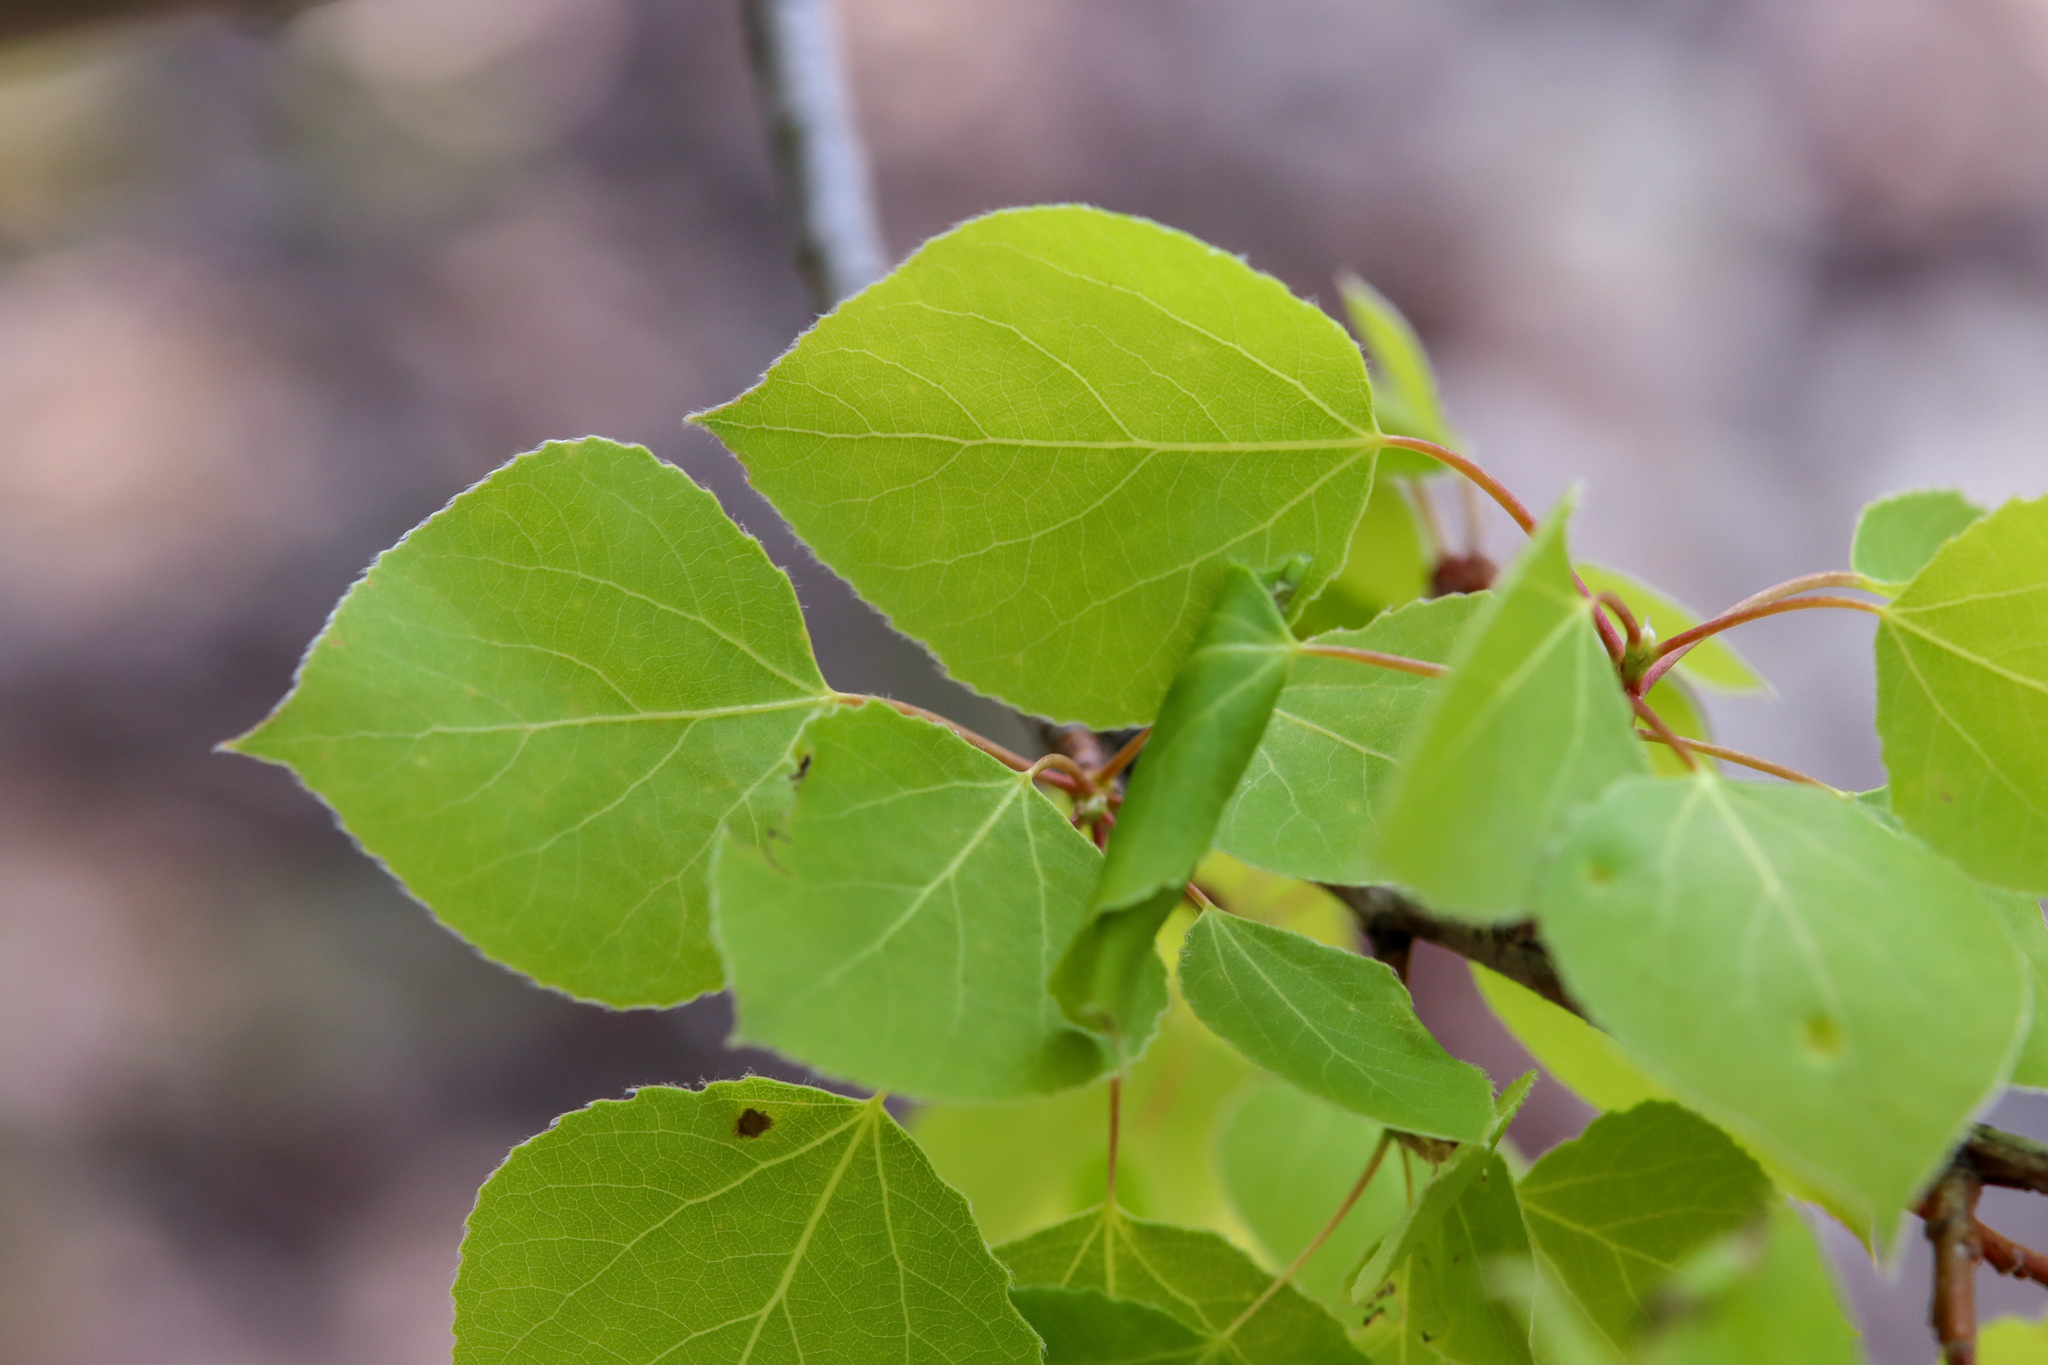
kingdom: Plantae
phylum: Tracheophyta
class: Magnoliopsida
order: Malpighiales
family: Salicaceae
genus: Populus
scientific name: Populus tremuloides
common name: Quaking aspen
